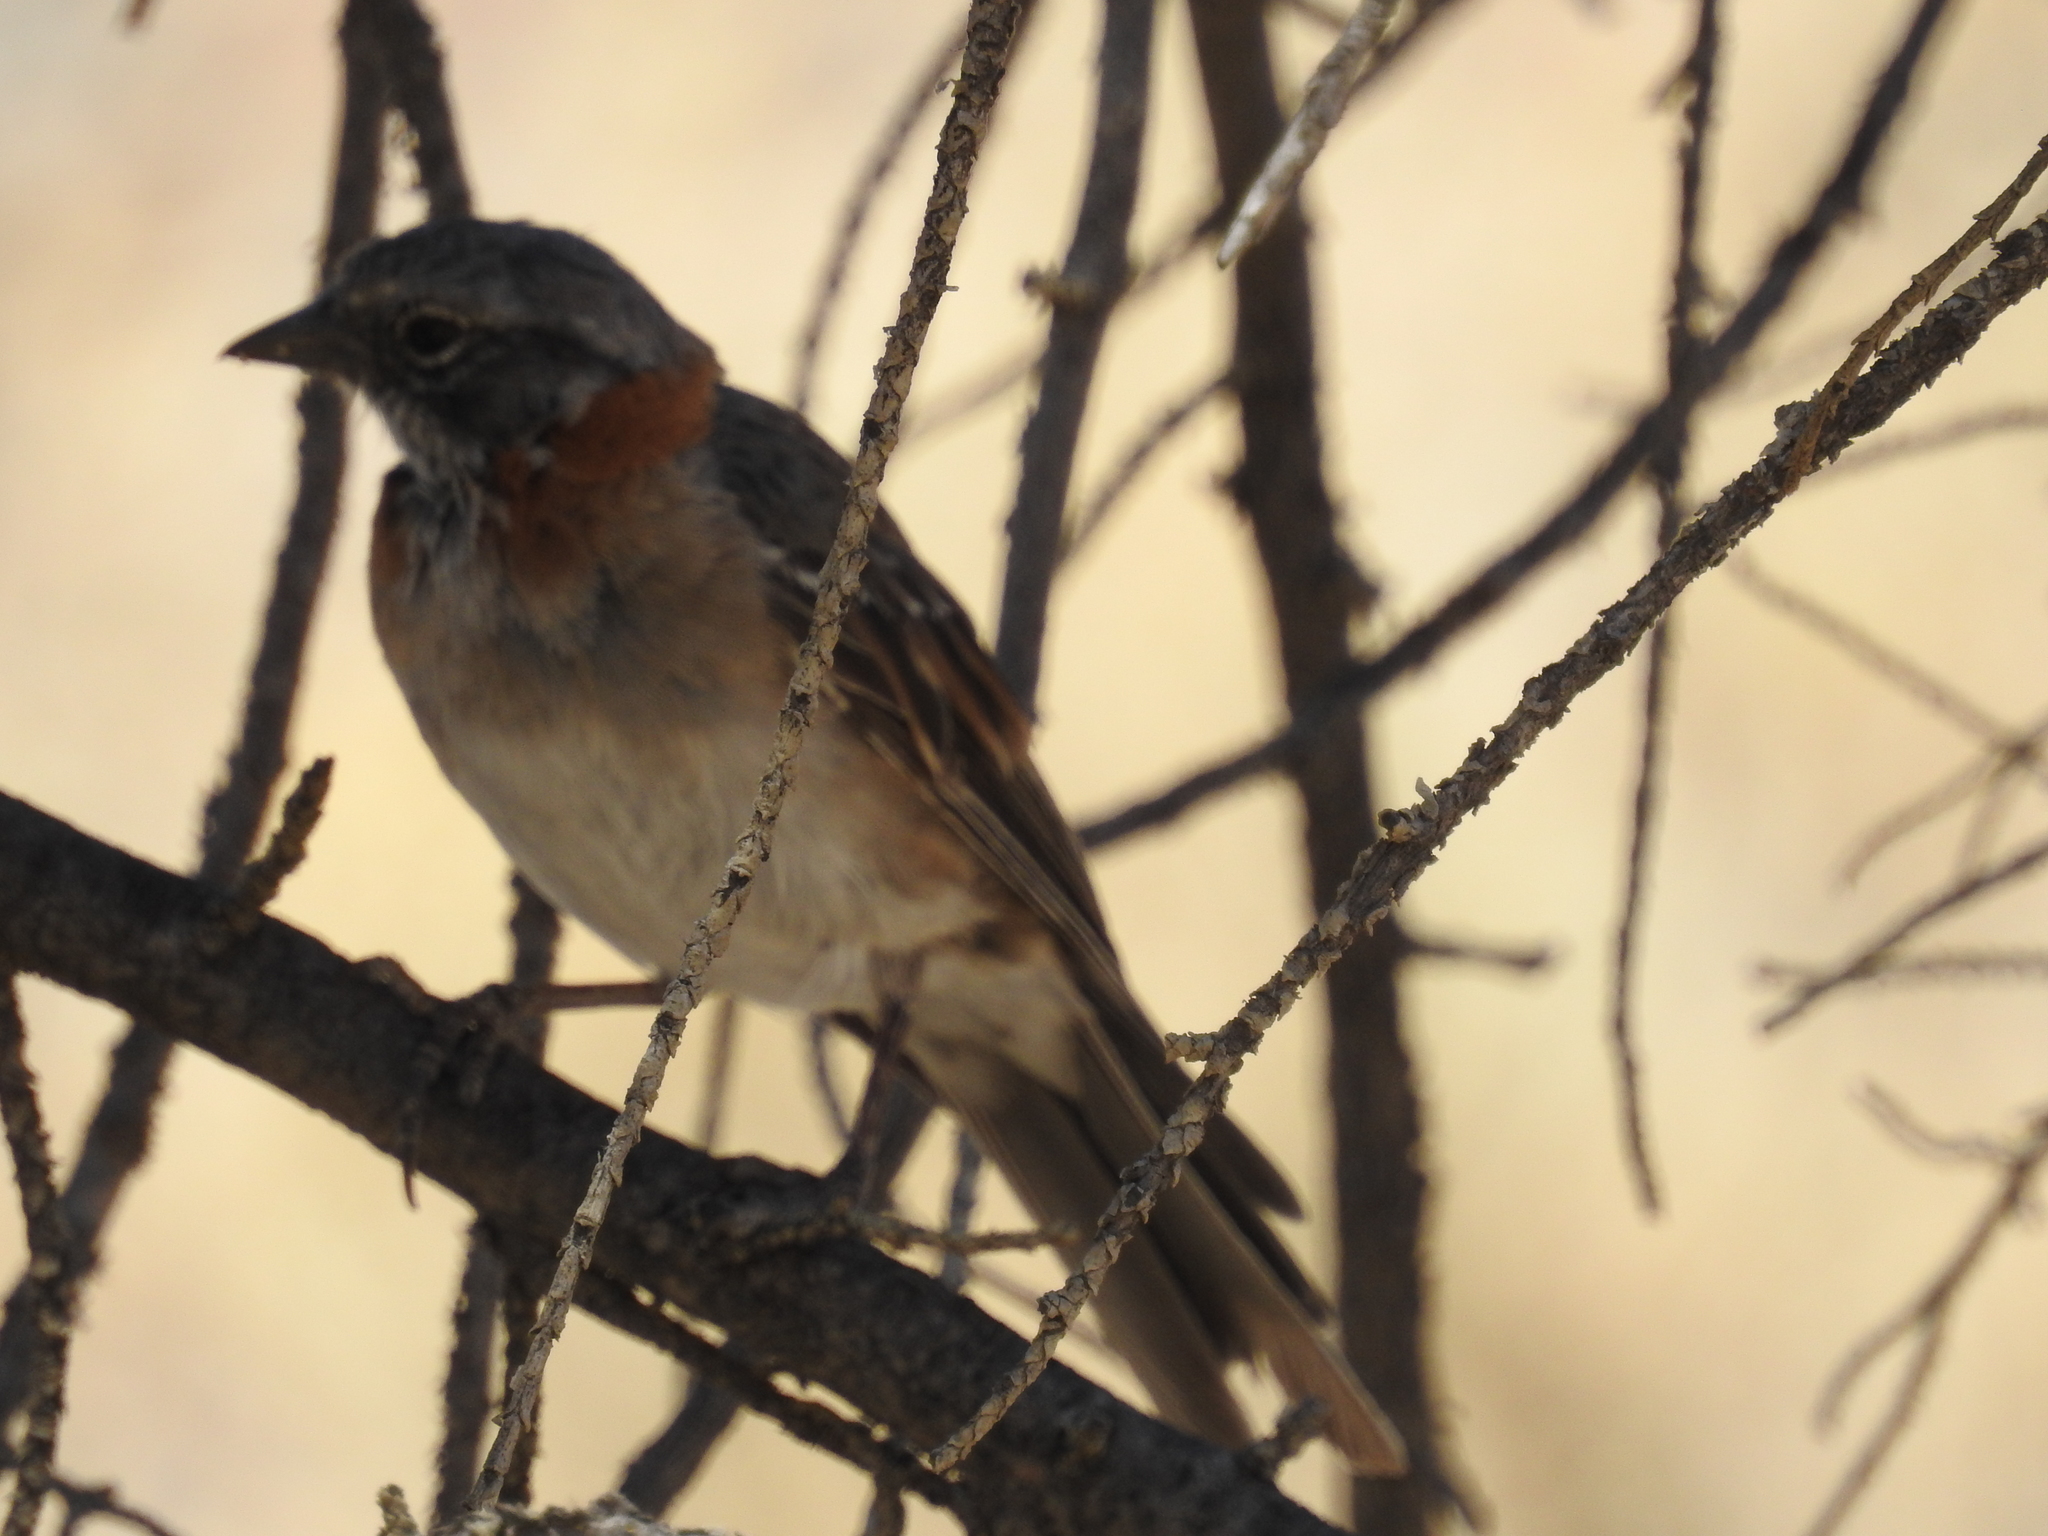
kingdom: Animalia
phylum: Chordata
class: Aves
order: Passeriformes
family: Passerellidae
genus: Zonotrichia
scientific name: Zonotrichia capensis
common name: Rufous-collared sparrow
